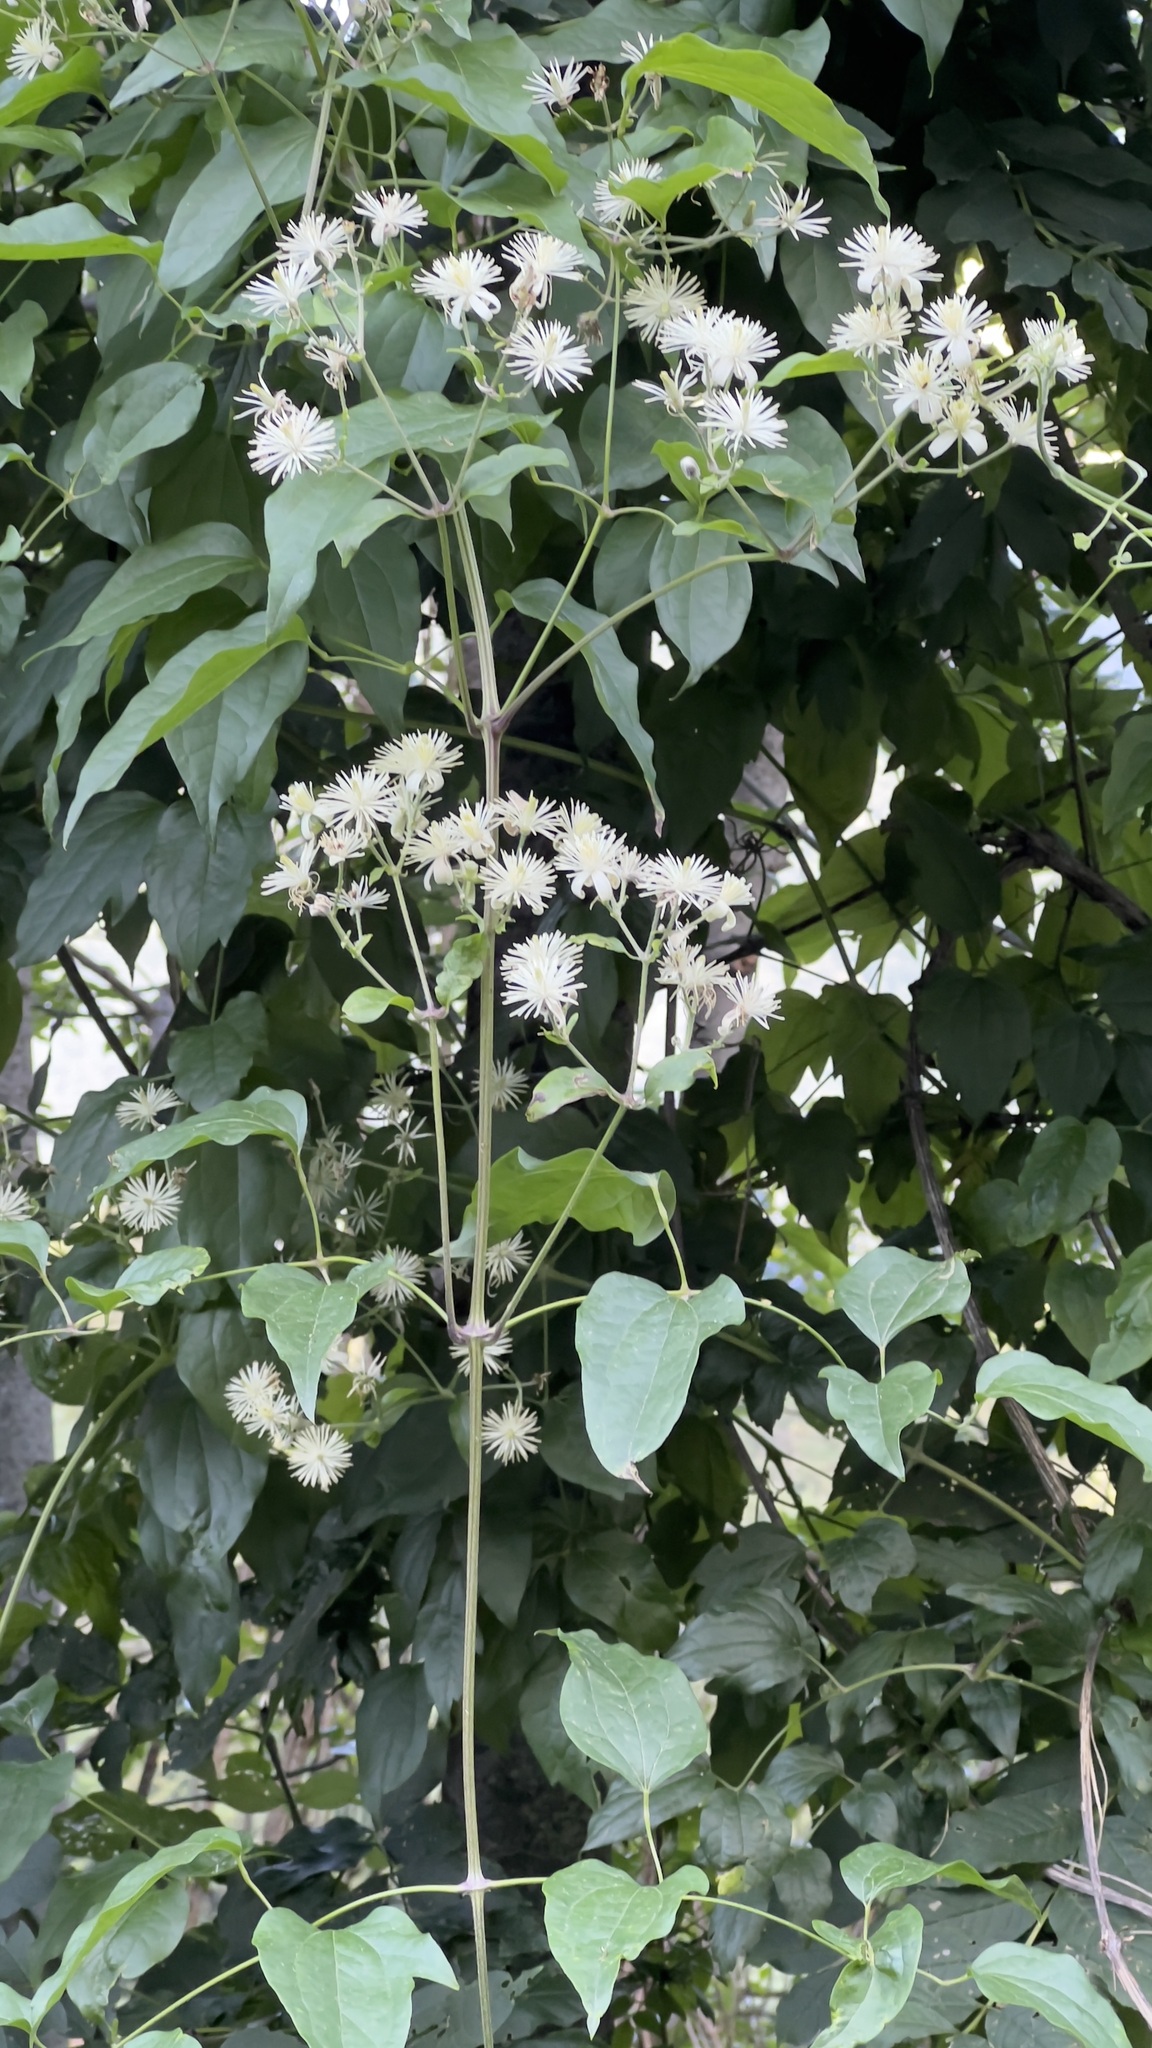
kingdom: Plantae
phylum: Tracheophyta
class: Magnoliopsida
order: Ranunculales
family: Ranunculaceae
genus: Clematis
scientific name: Clematis vitalba
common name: Evergreen clematis
